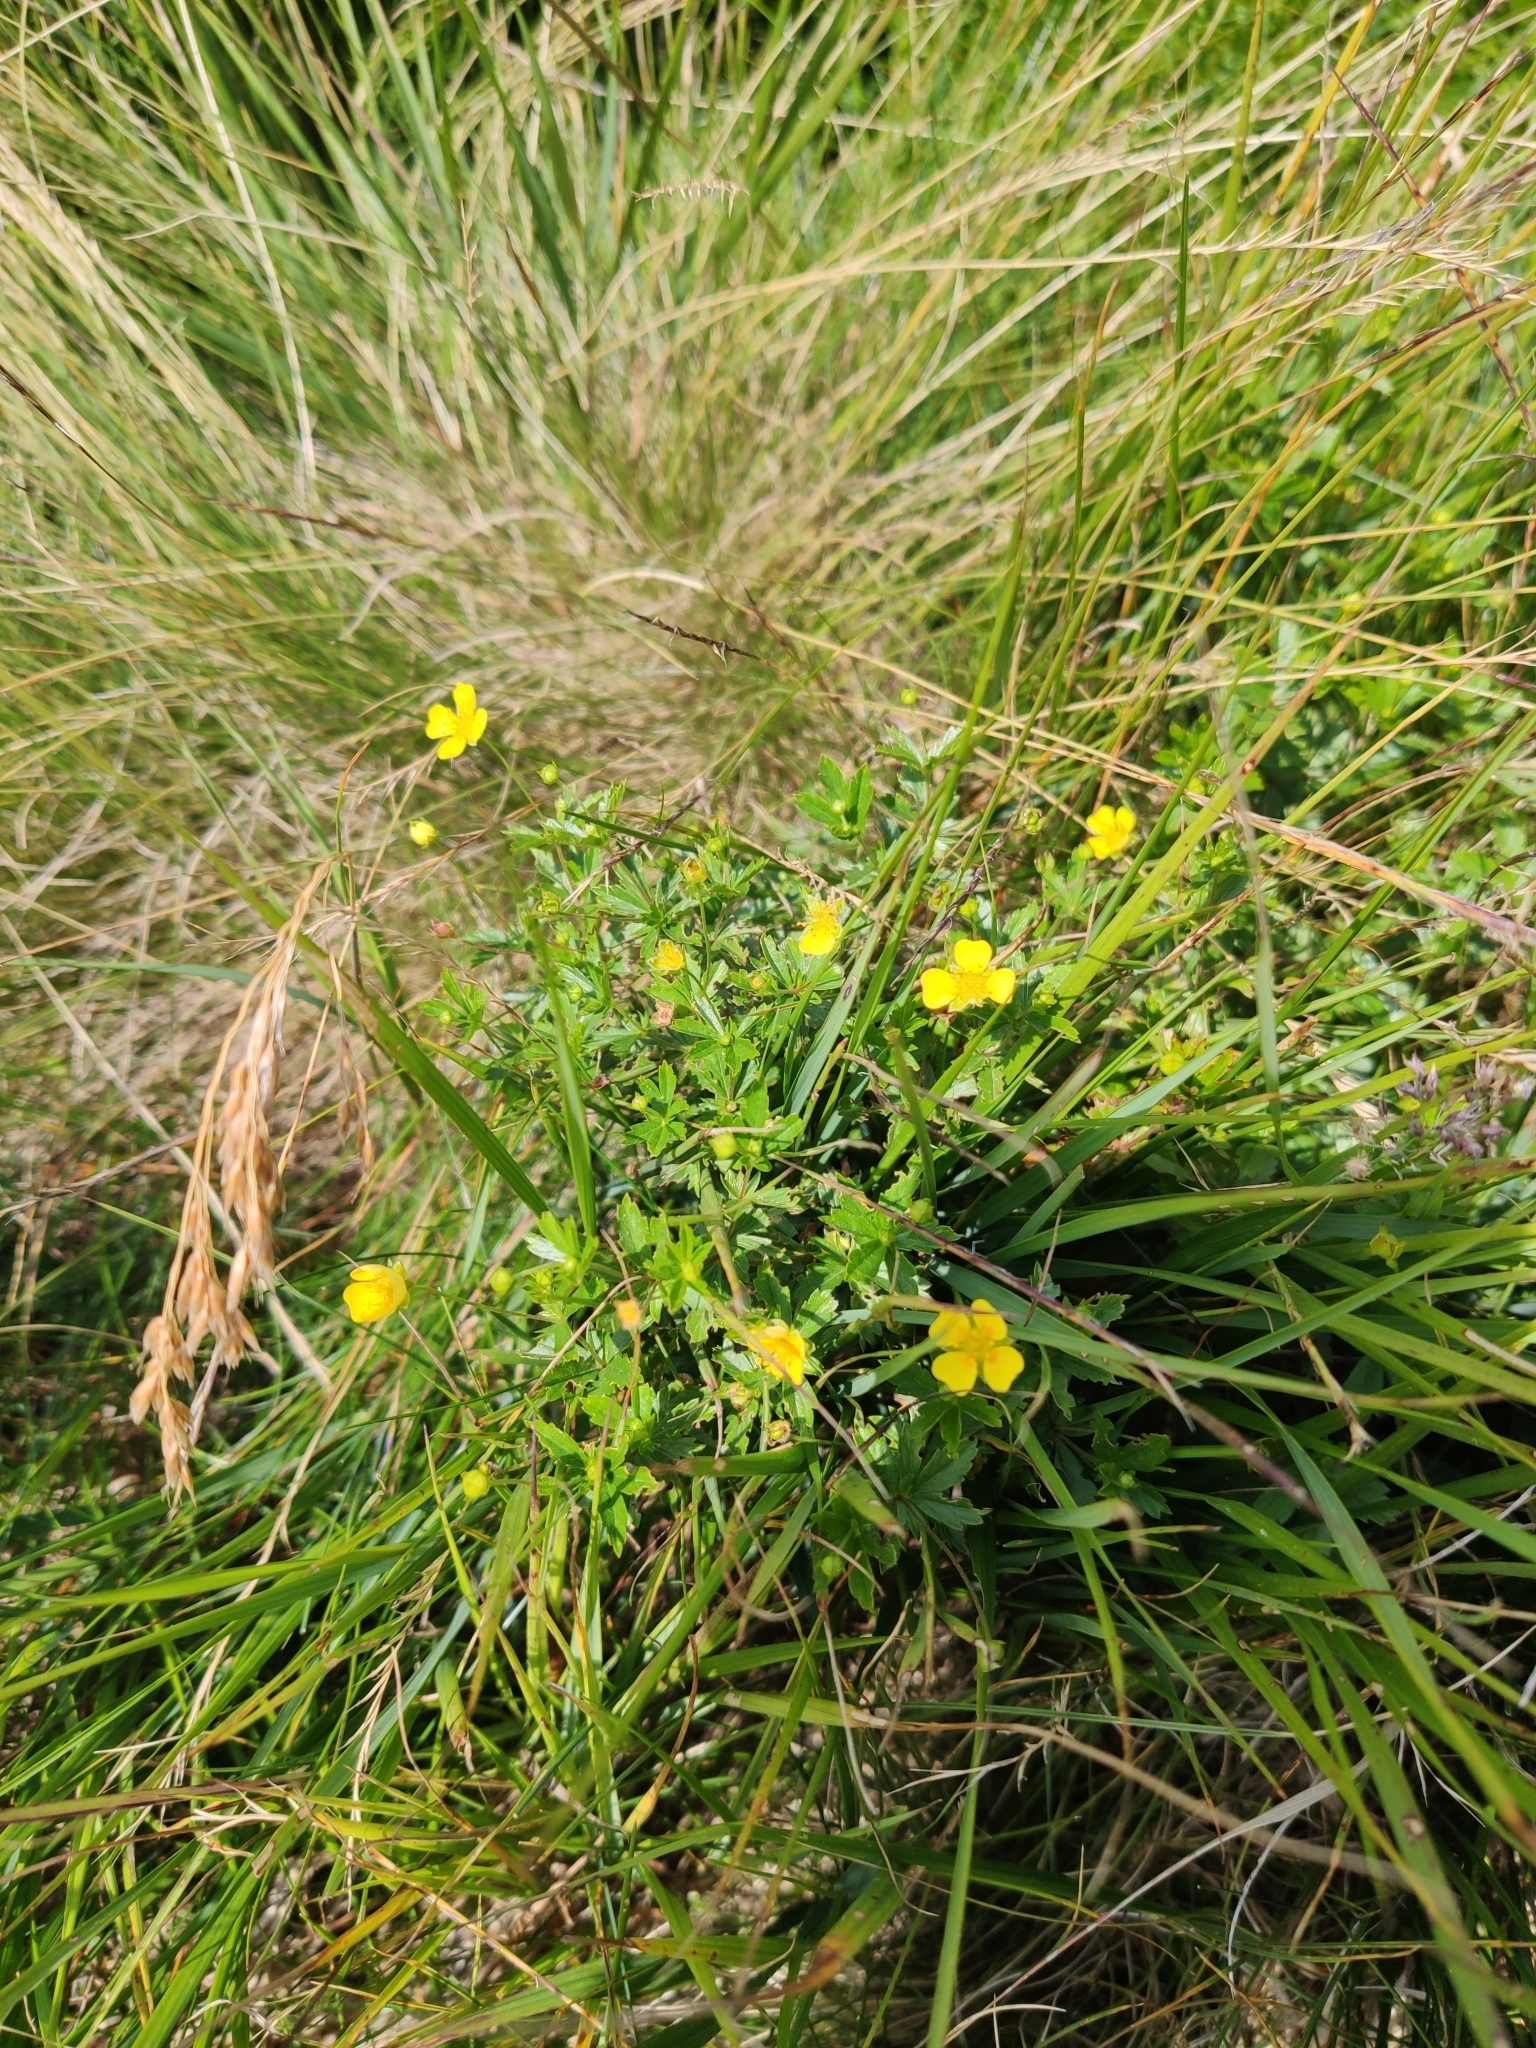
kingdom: Plantae
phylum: Tracheophyta
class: Magnoliopsida
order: Rosales
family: Rosaceae
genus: Potentilla
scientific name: Potentilla erecta
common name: Tormentil
